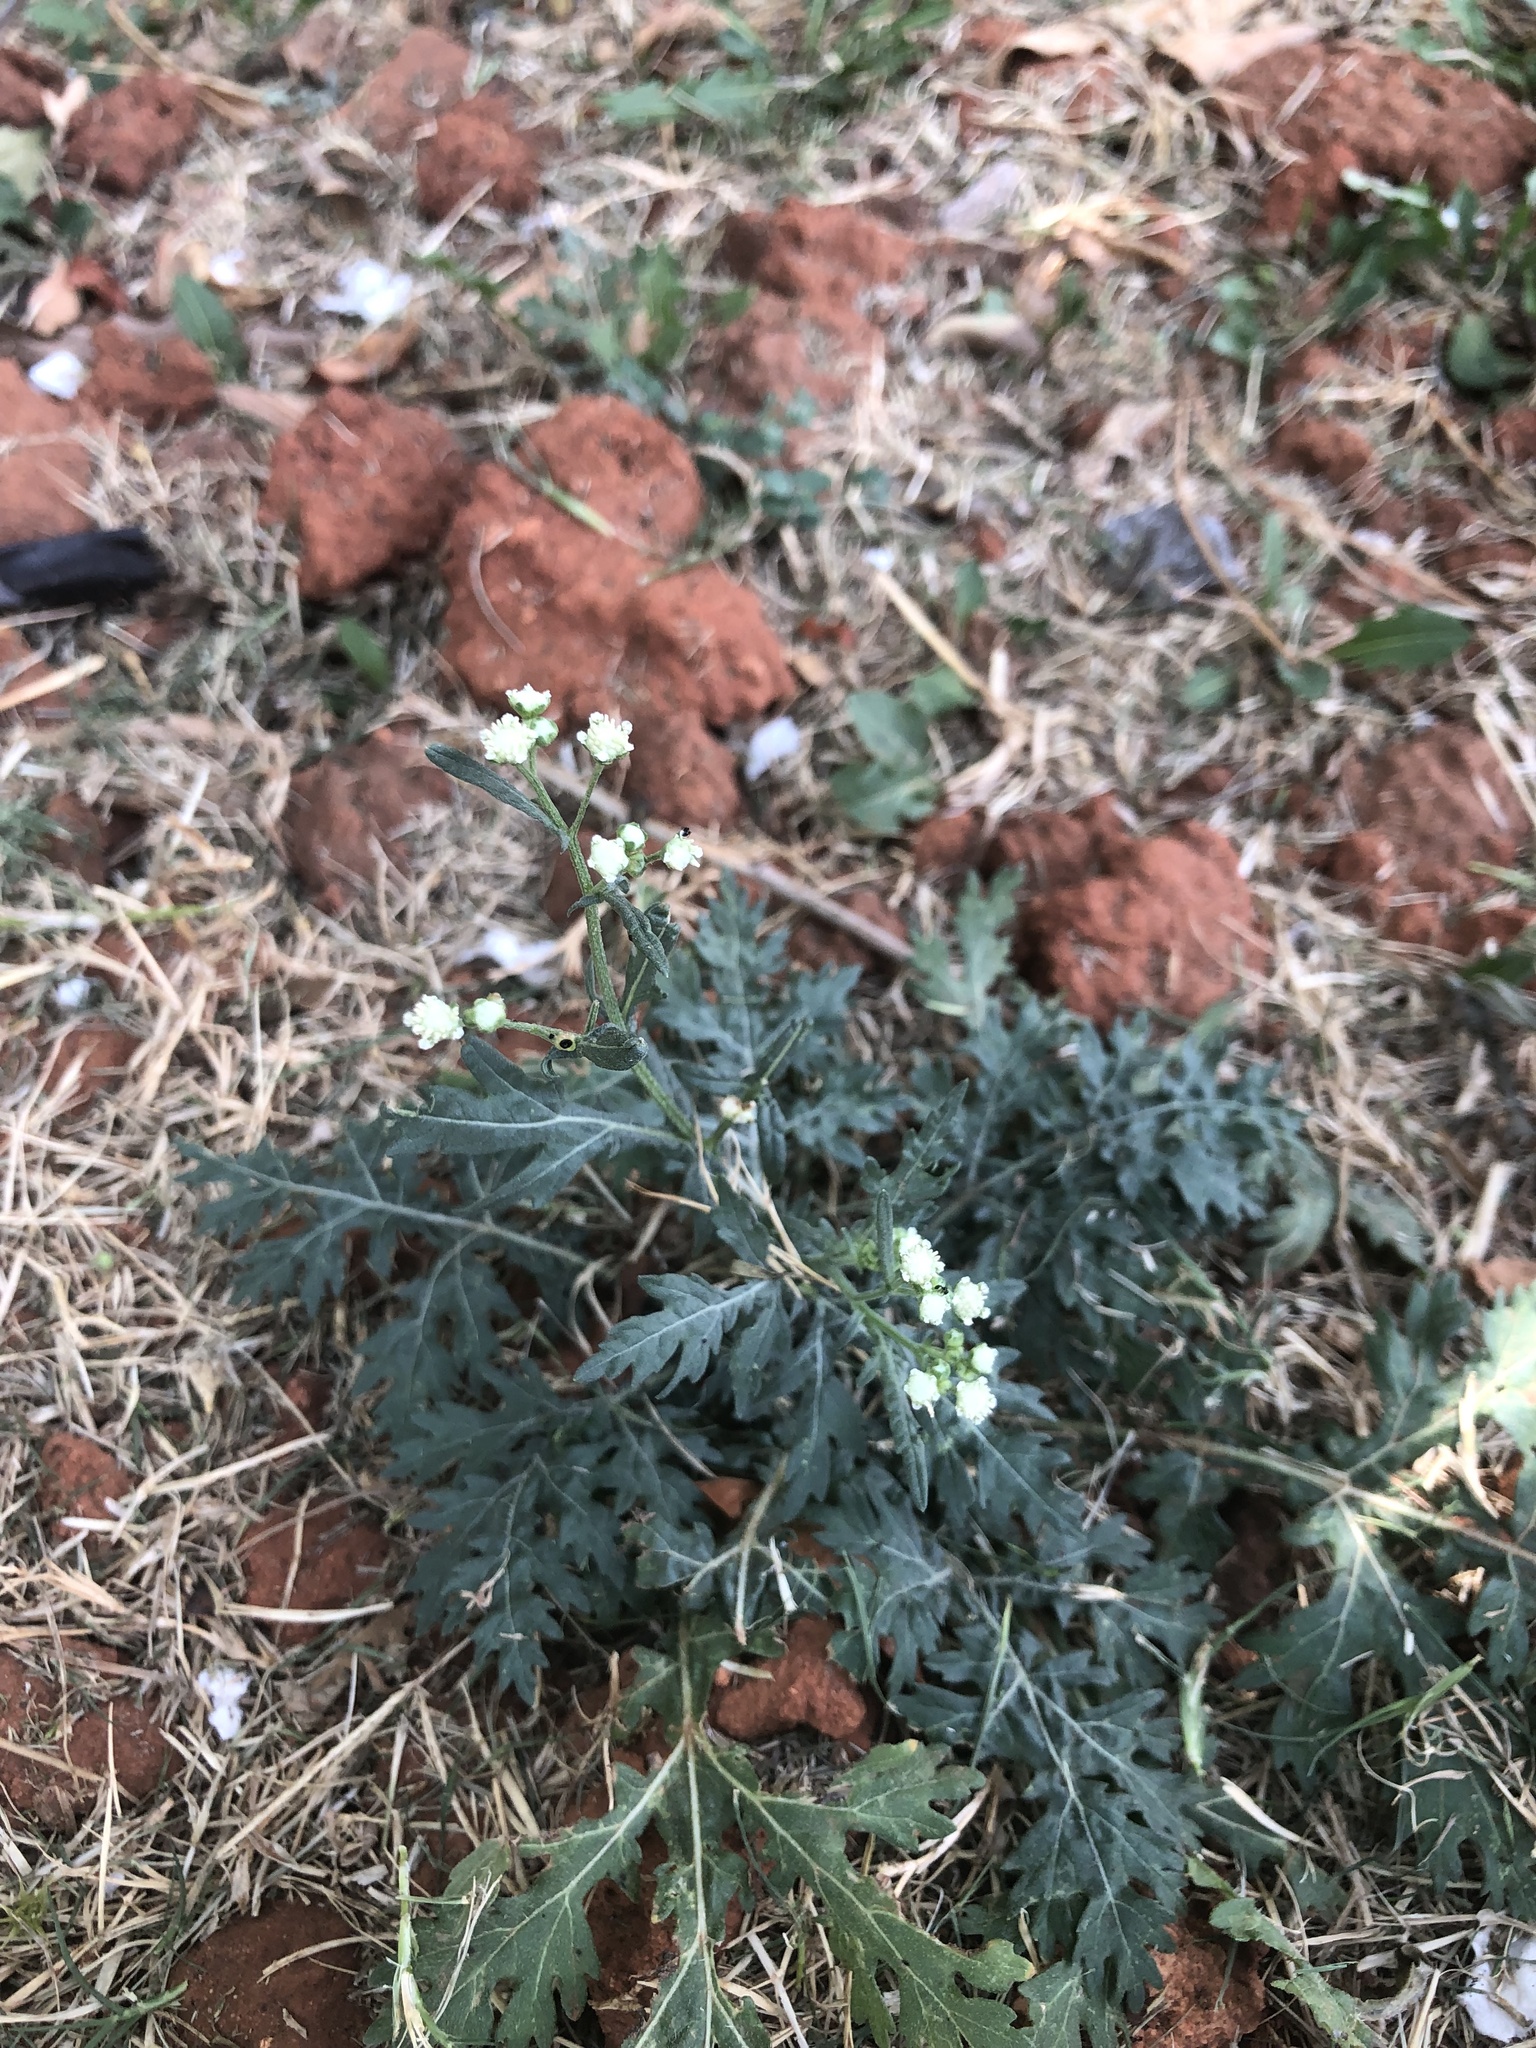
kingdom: Plantae
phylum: Tracheophyta
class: Magnoliopsida
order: Asterales
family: Asteraceae
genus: Parthenium
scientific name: Parthenium hysterophorus
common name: Santa maria feverfew
